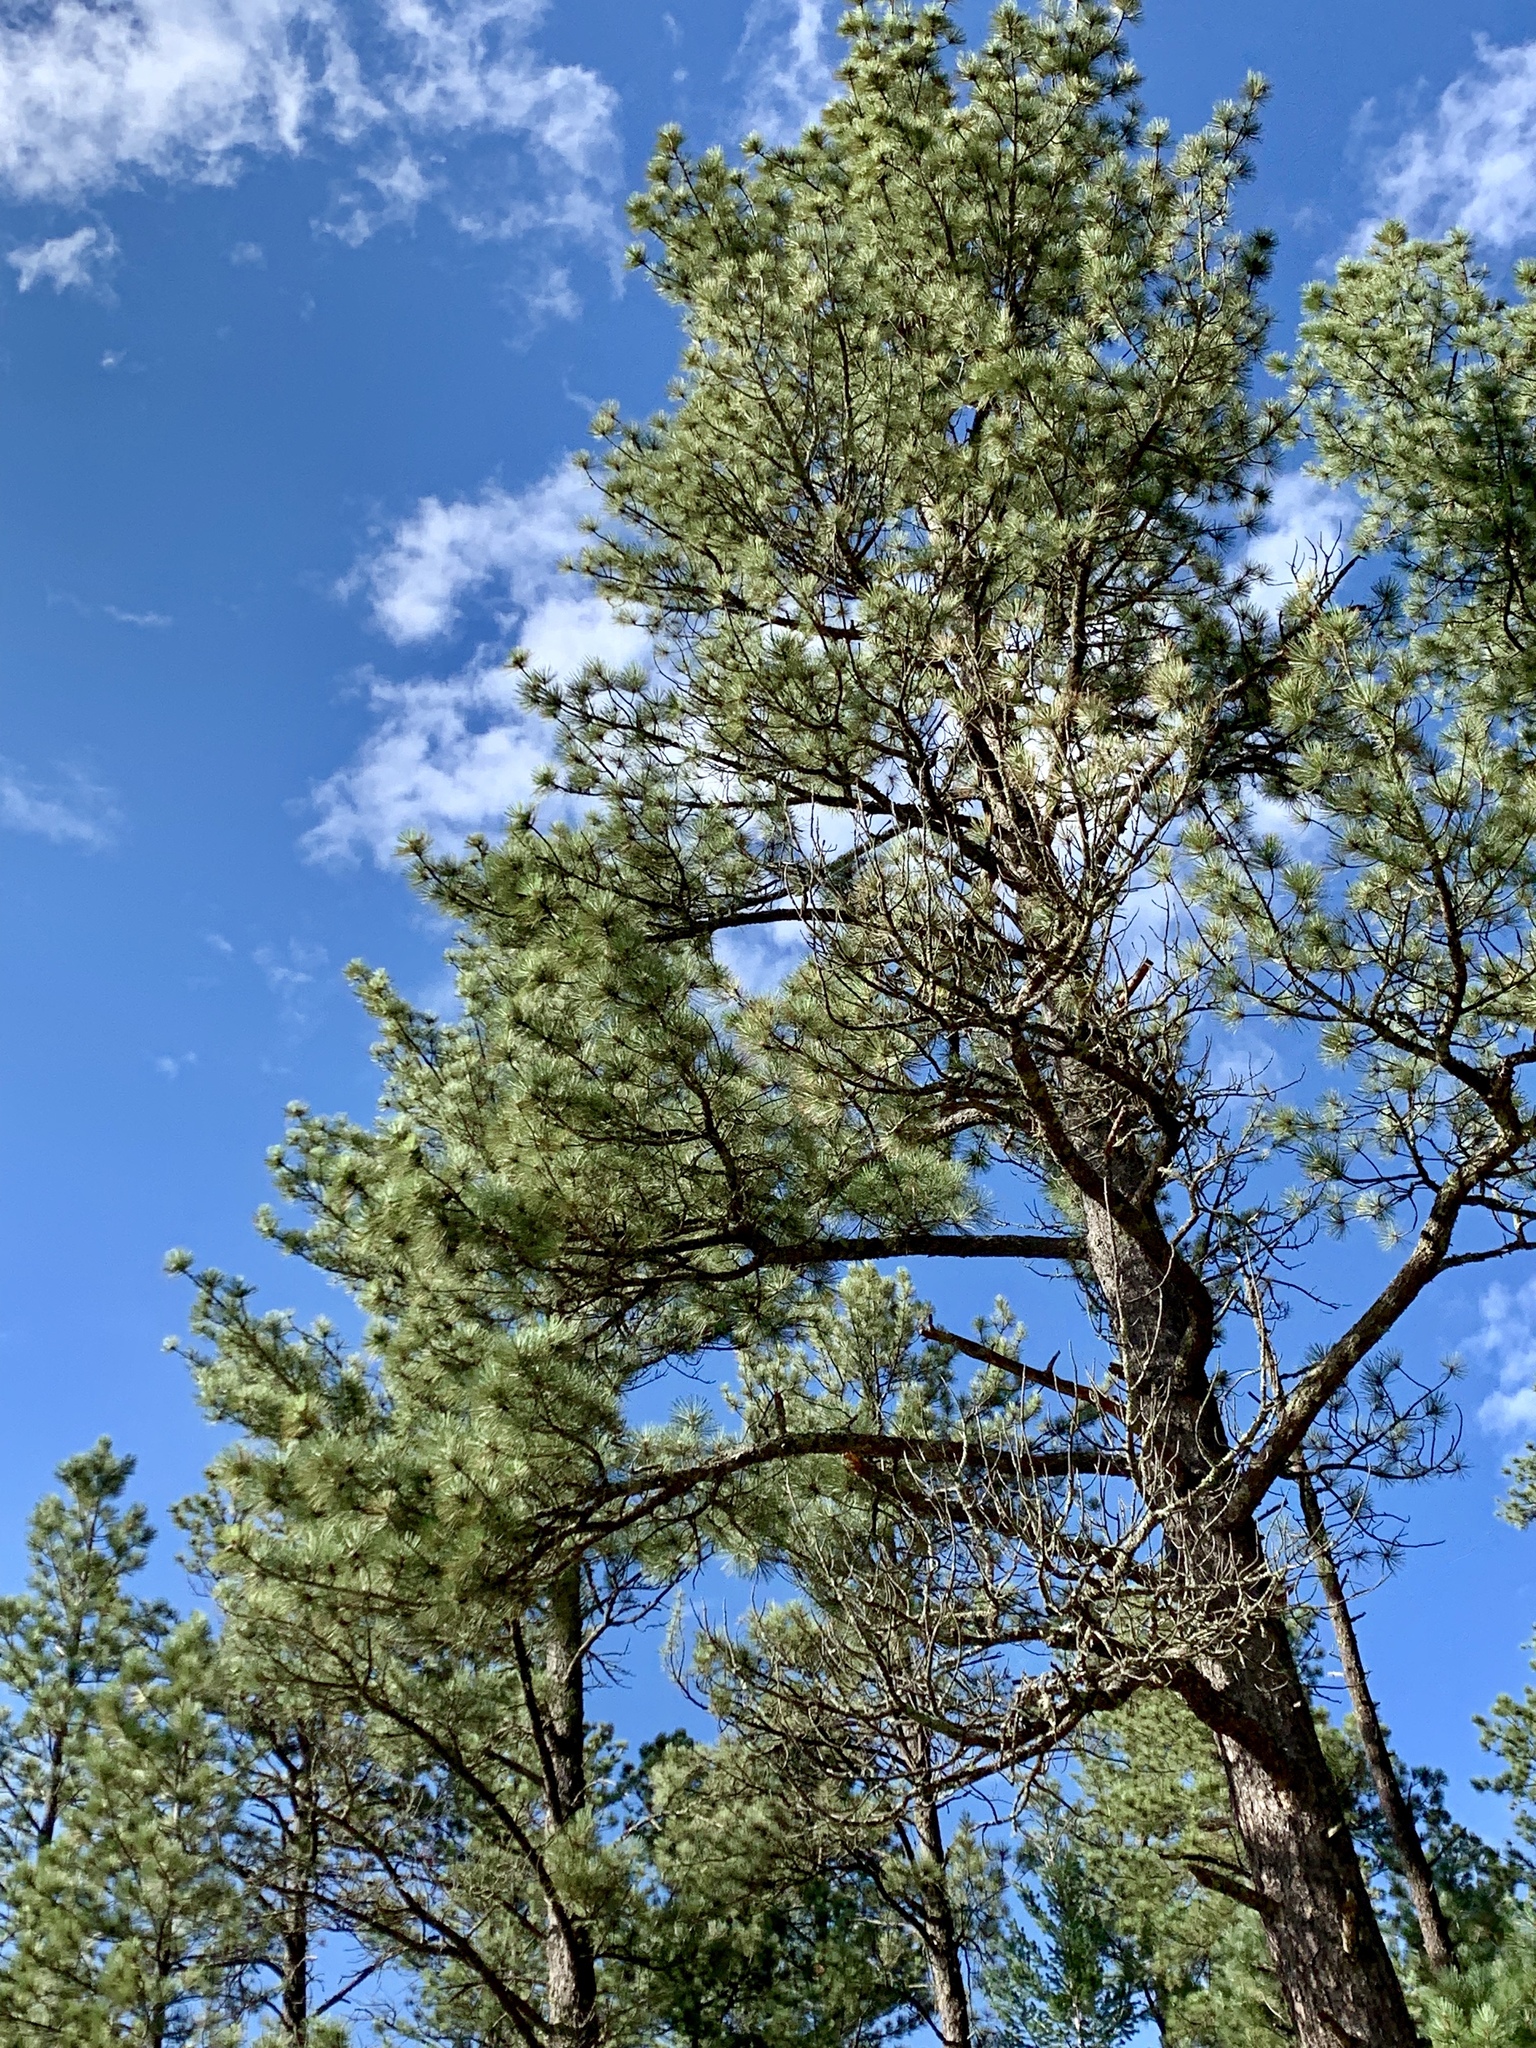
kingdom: Plantae
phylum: Tracheophyta
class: Pinopsida
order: Pinales
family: Pinaceae
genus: Pinus
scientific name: Pinus ponderosa
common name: Western yellow-pine
